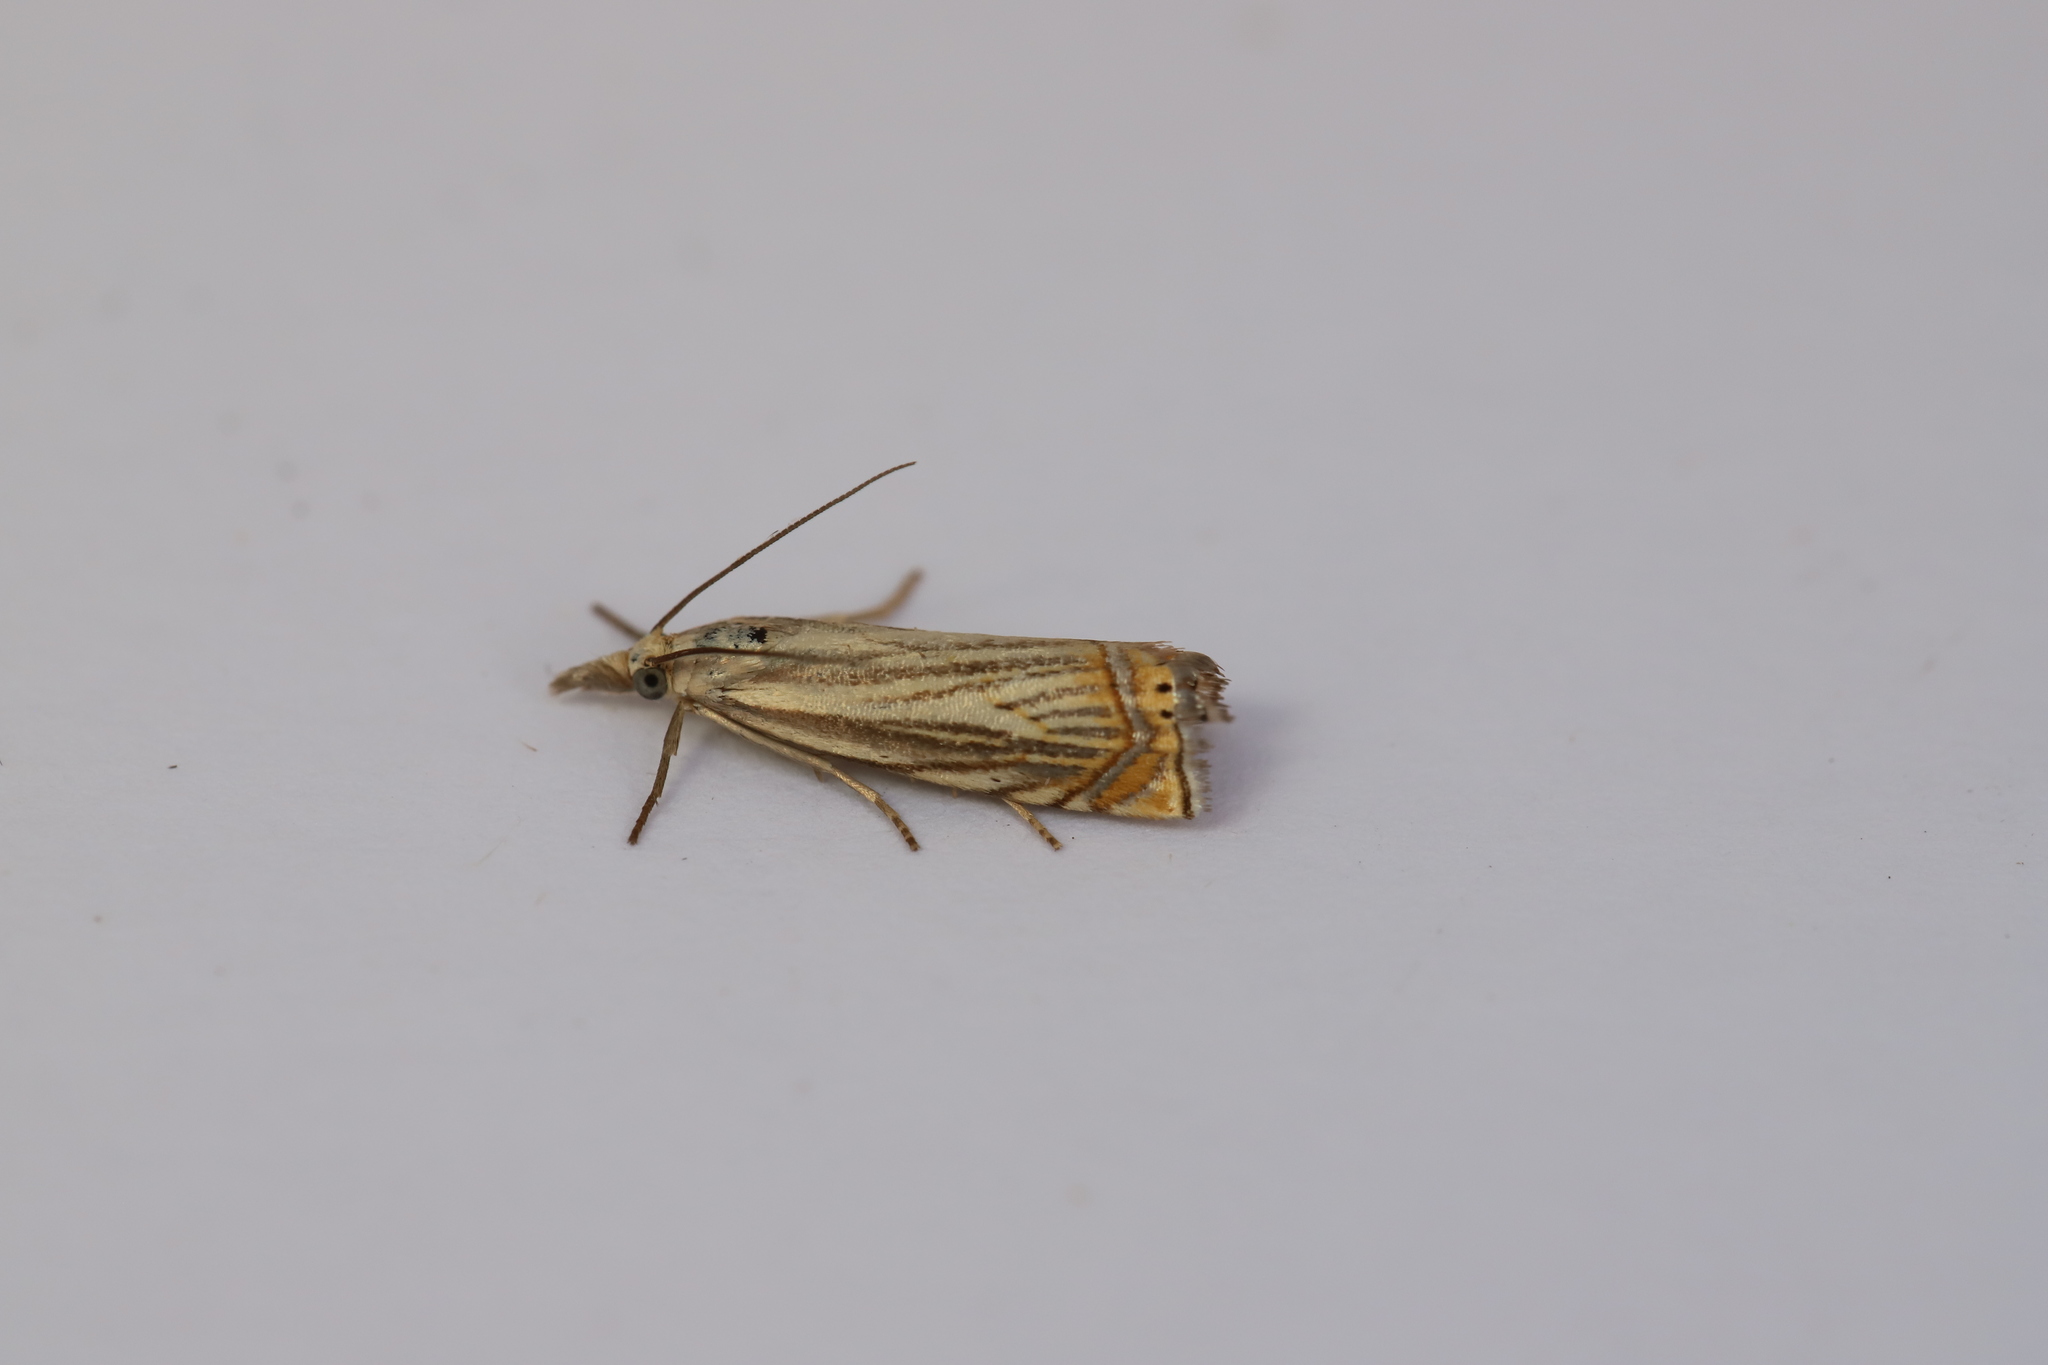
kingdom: Animalia
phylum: Arthropoda
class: Insecta
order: Lepidoptera
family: Crambidae
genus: Chrysoteuchia
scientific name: Chrysoteuchia topiarius
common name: Topiary grass-veneer
